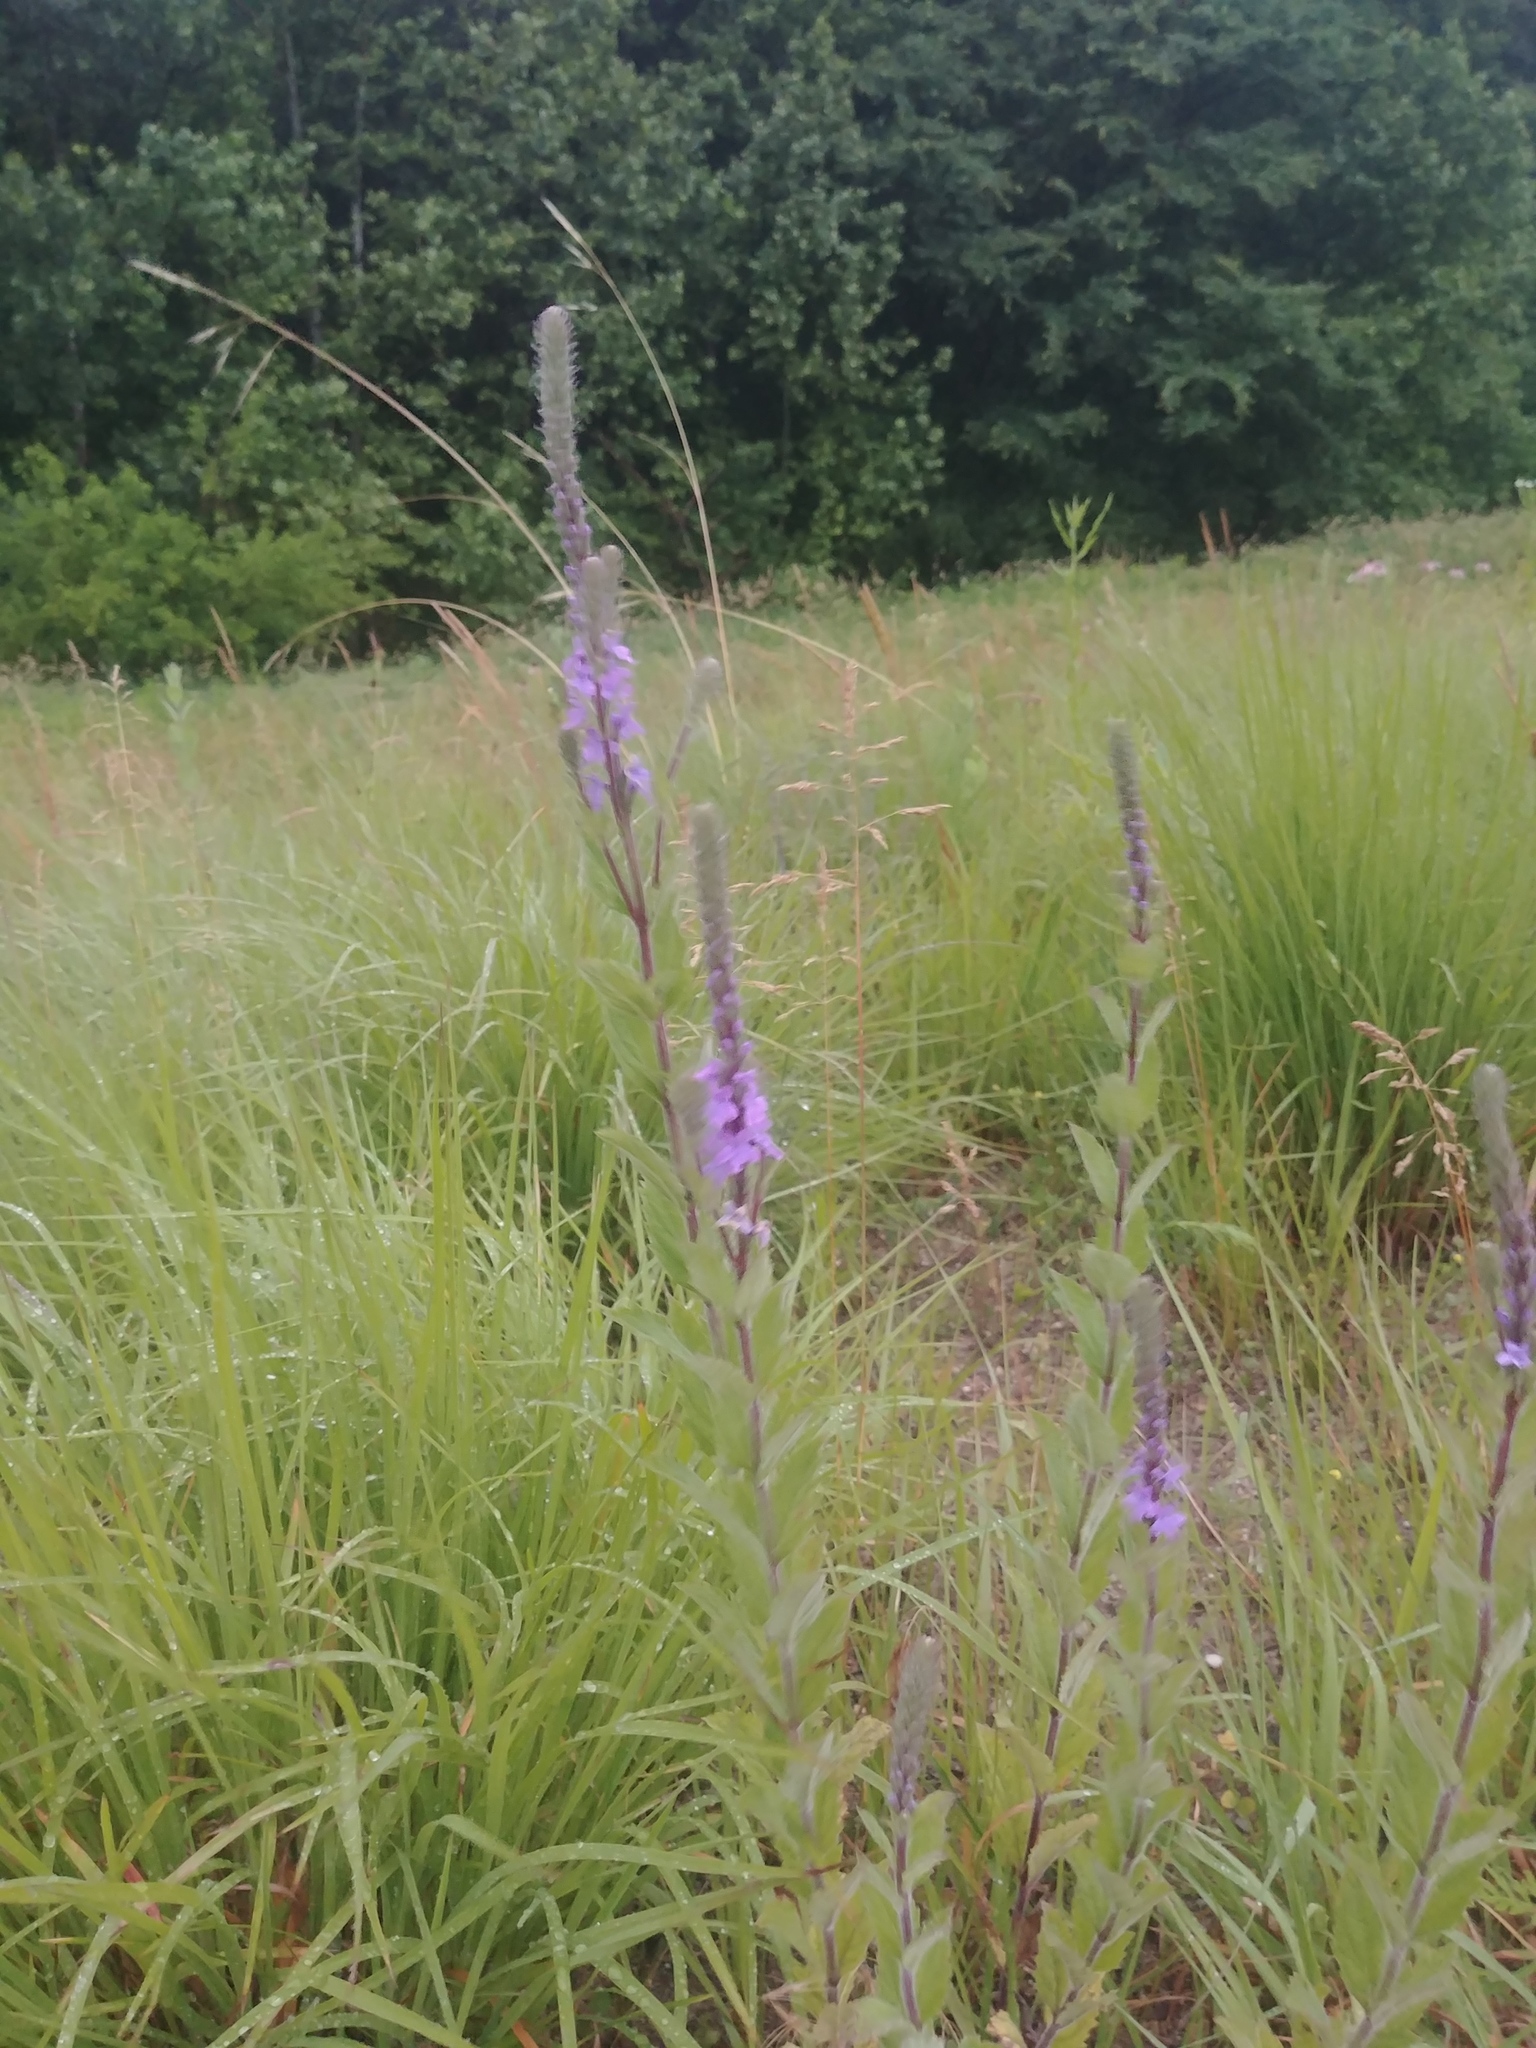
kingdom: Plantae
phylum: Tracheophyta
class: Magnoliopsida
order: Lamiales
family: Verbenaceae
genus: Verbena
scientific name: Verbena stricta
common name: Hoary vervain
